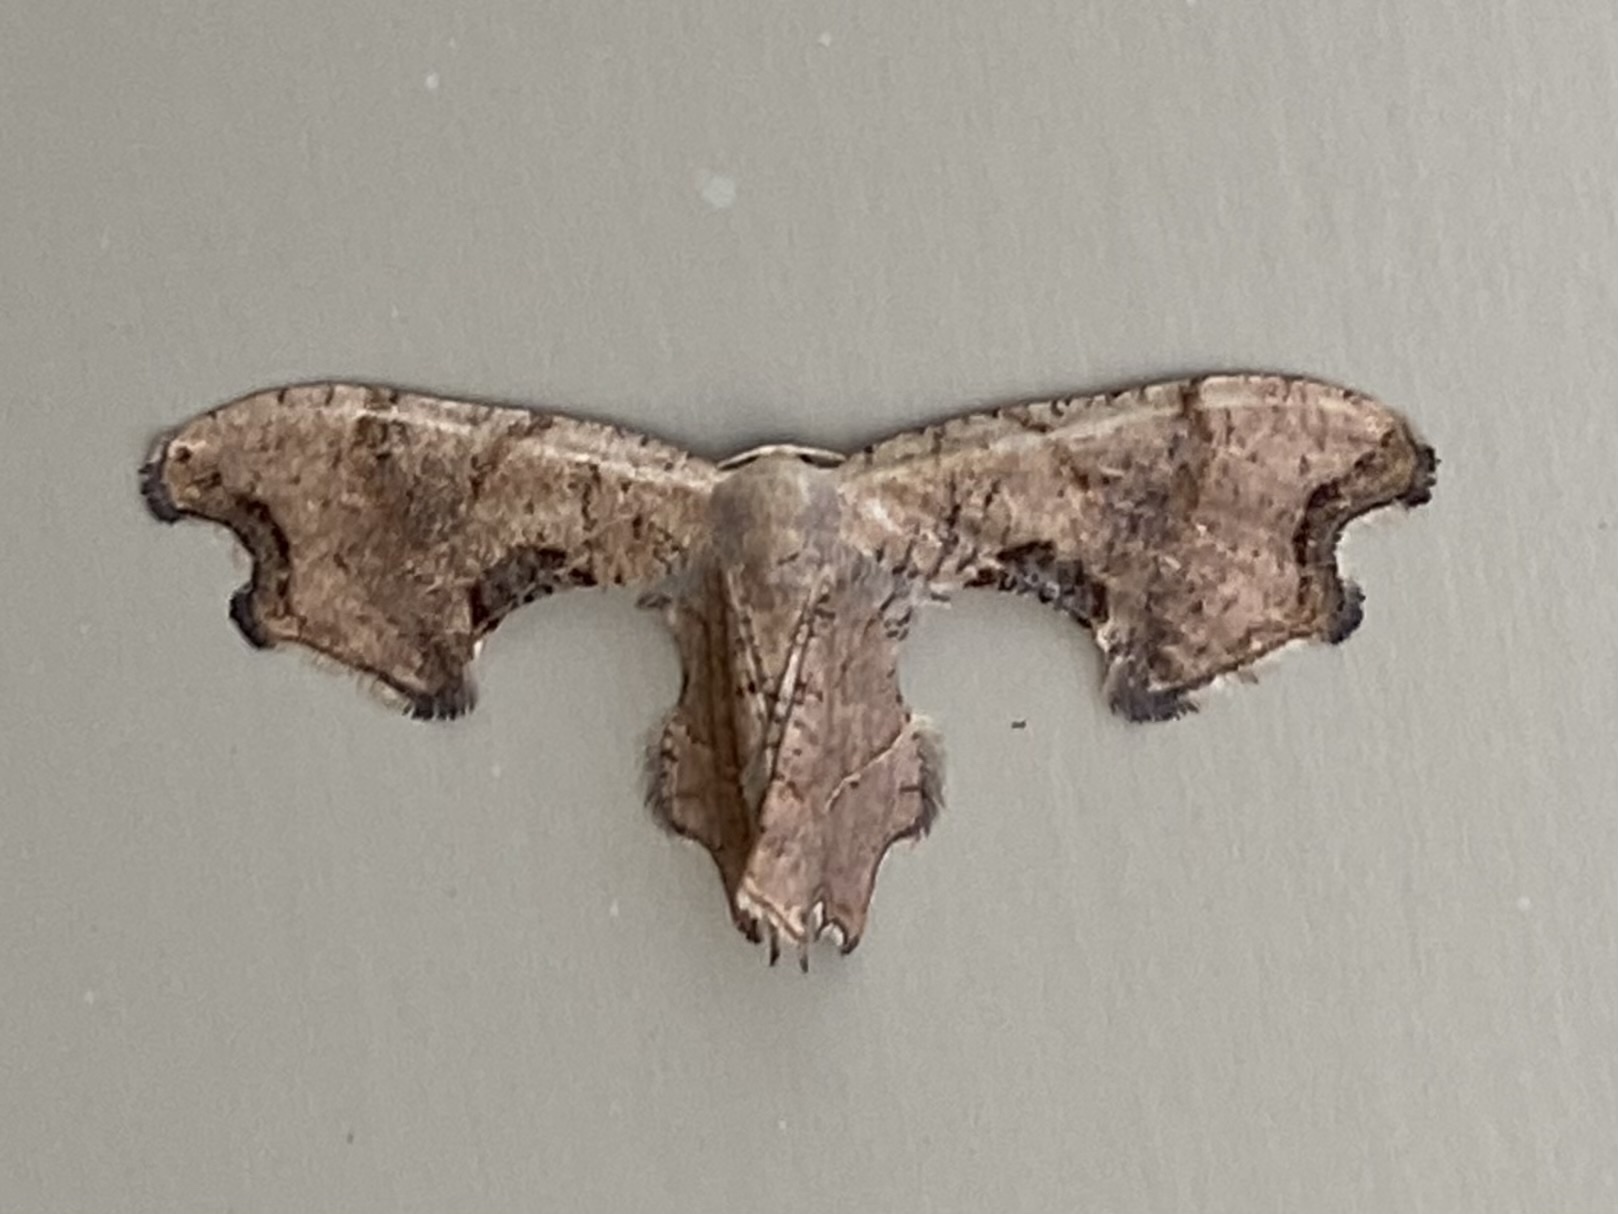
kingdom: Animalia
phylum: Arthropoda
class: Insecta
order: Lepidoptera
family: Uraniidae
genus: Epiplema
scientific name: Epiplema Calledapteryx dryopterata
